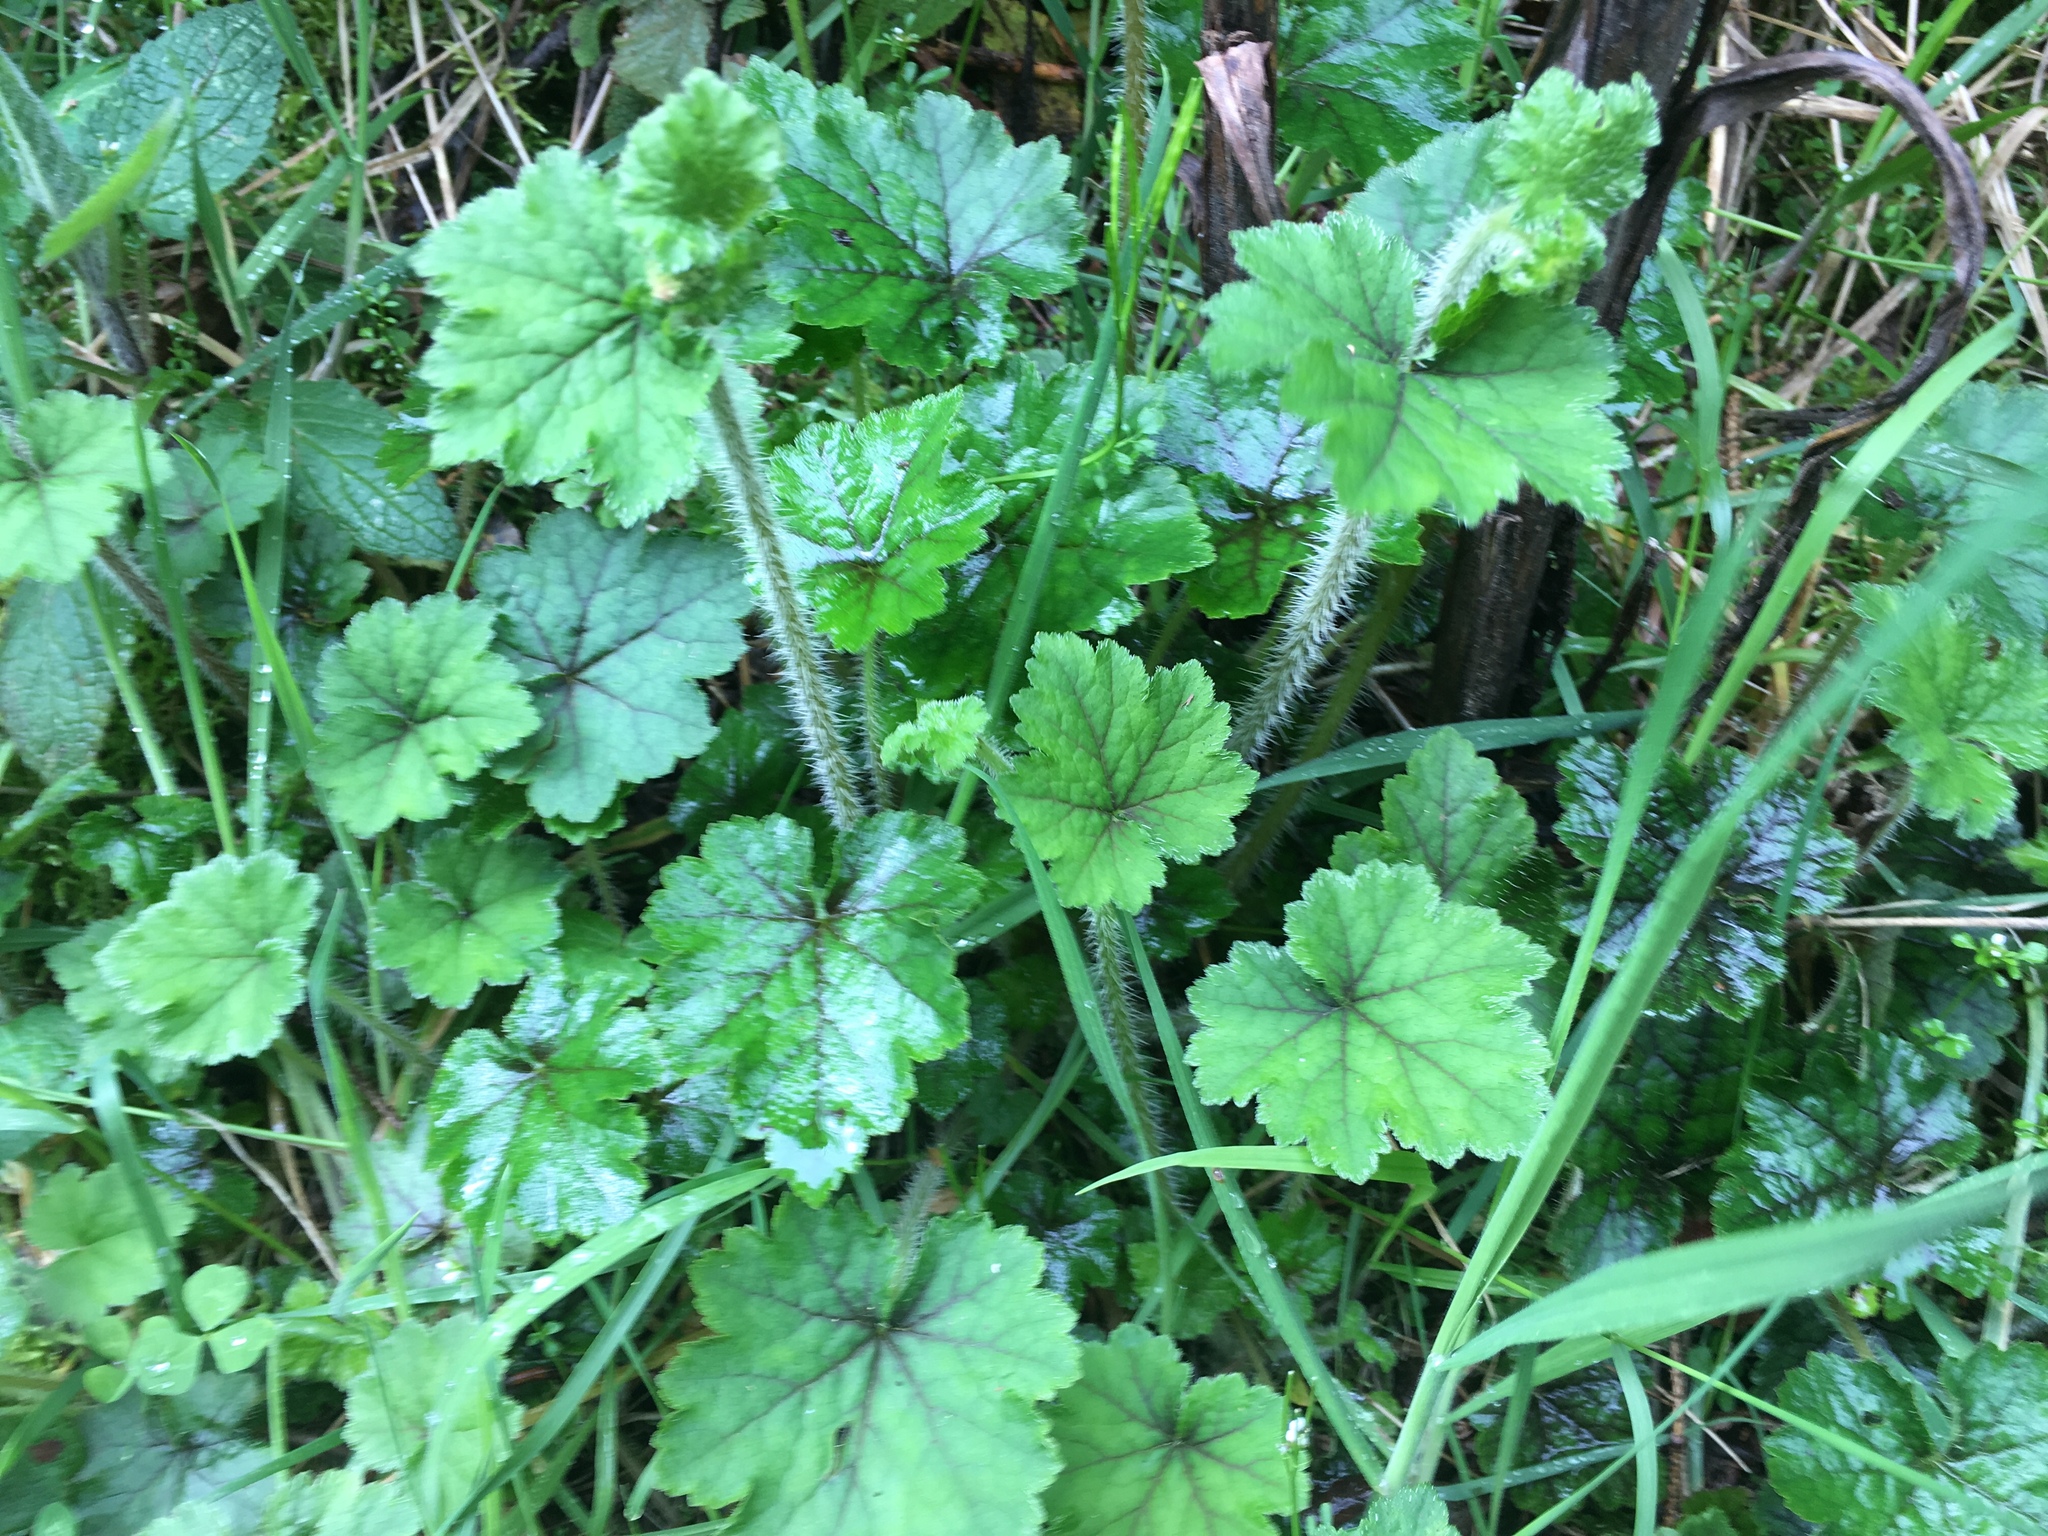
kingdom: Plantae
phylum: Tracheophyta
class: Magnoliopsida
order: Saxifragales
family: Saxifragaceae
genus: Tellima
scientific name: Tellima grandiflora
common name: Fringecups
